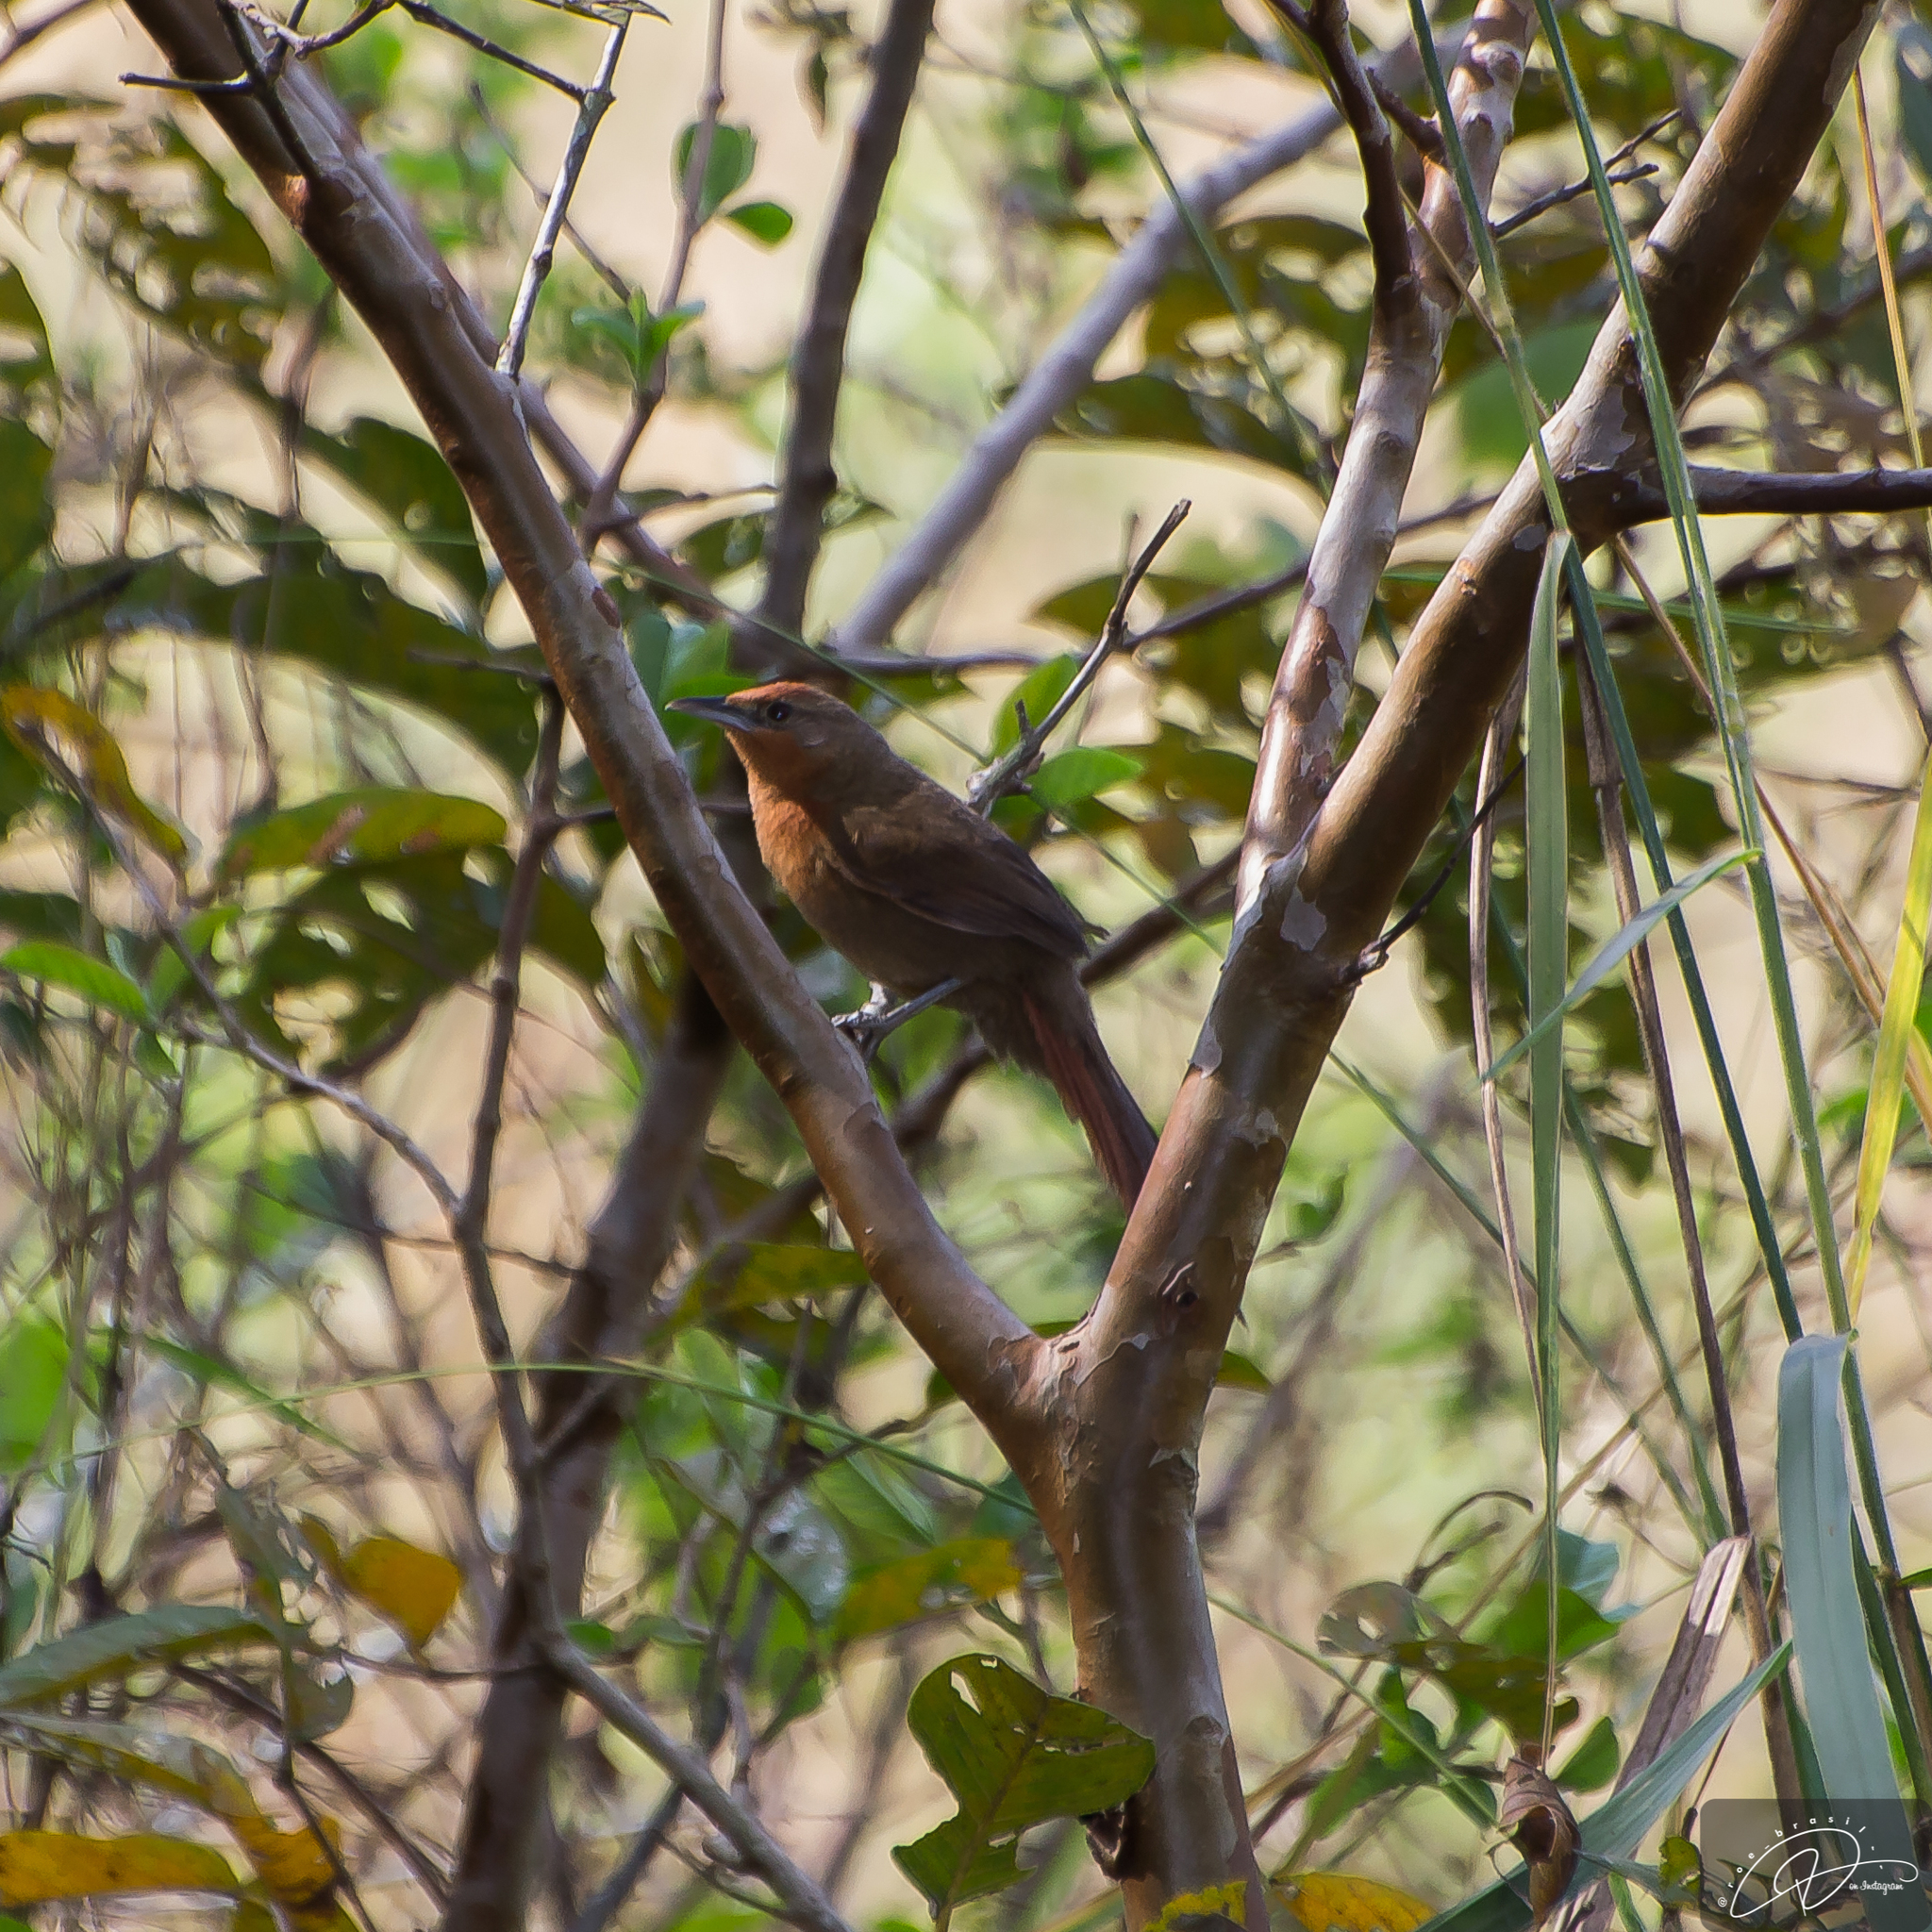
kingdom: Animalia
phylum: Chordata
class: Aves
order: Passeriformes
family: Furnariidae
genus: Phacellodomus
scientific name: Phacellodomus erythrophthalmus
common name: Orange-eyed thornbird
